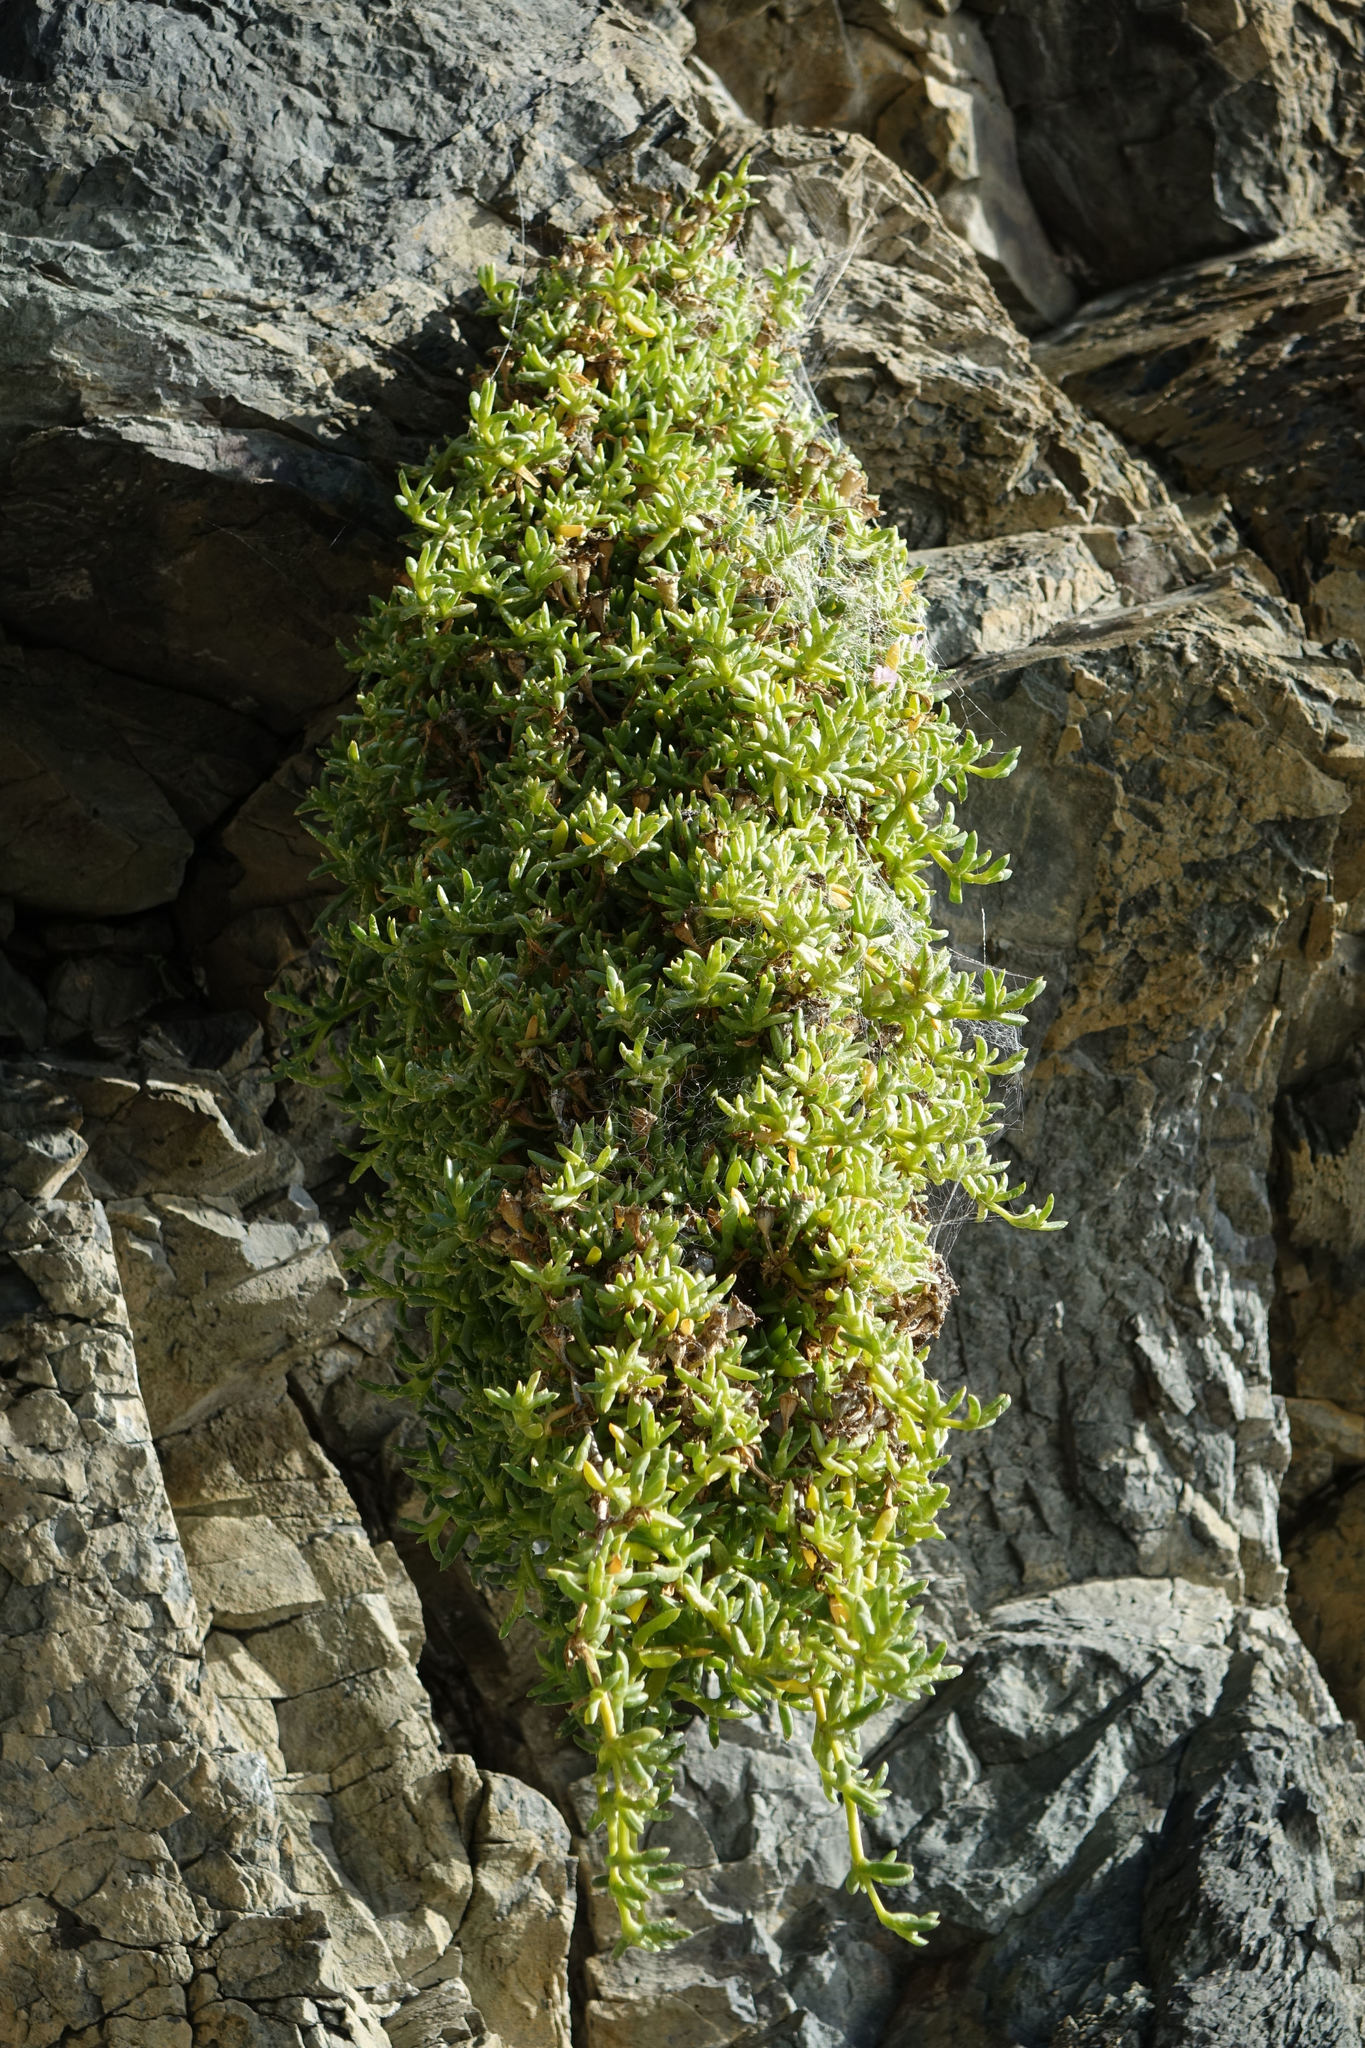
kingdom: Plantae
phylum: Tracheophyta
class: Magnoliopsida
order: Caryophyllales
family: Aizoaceae
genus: Disphyma
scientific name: Disphyma australe
